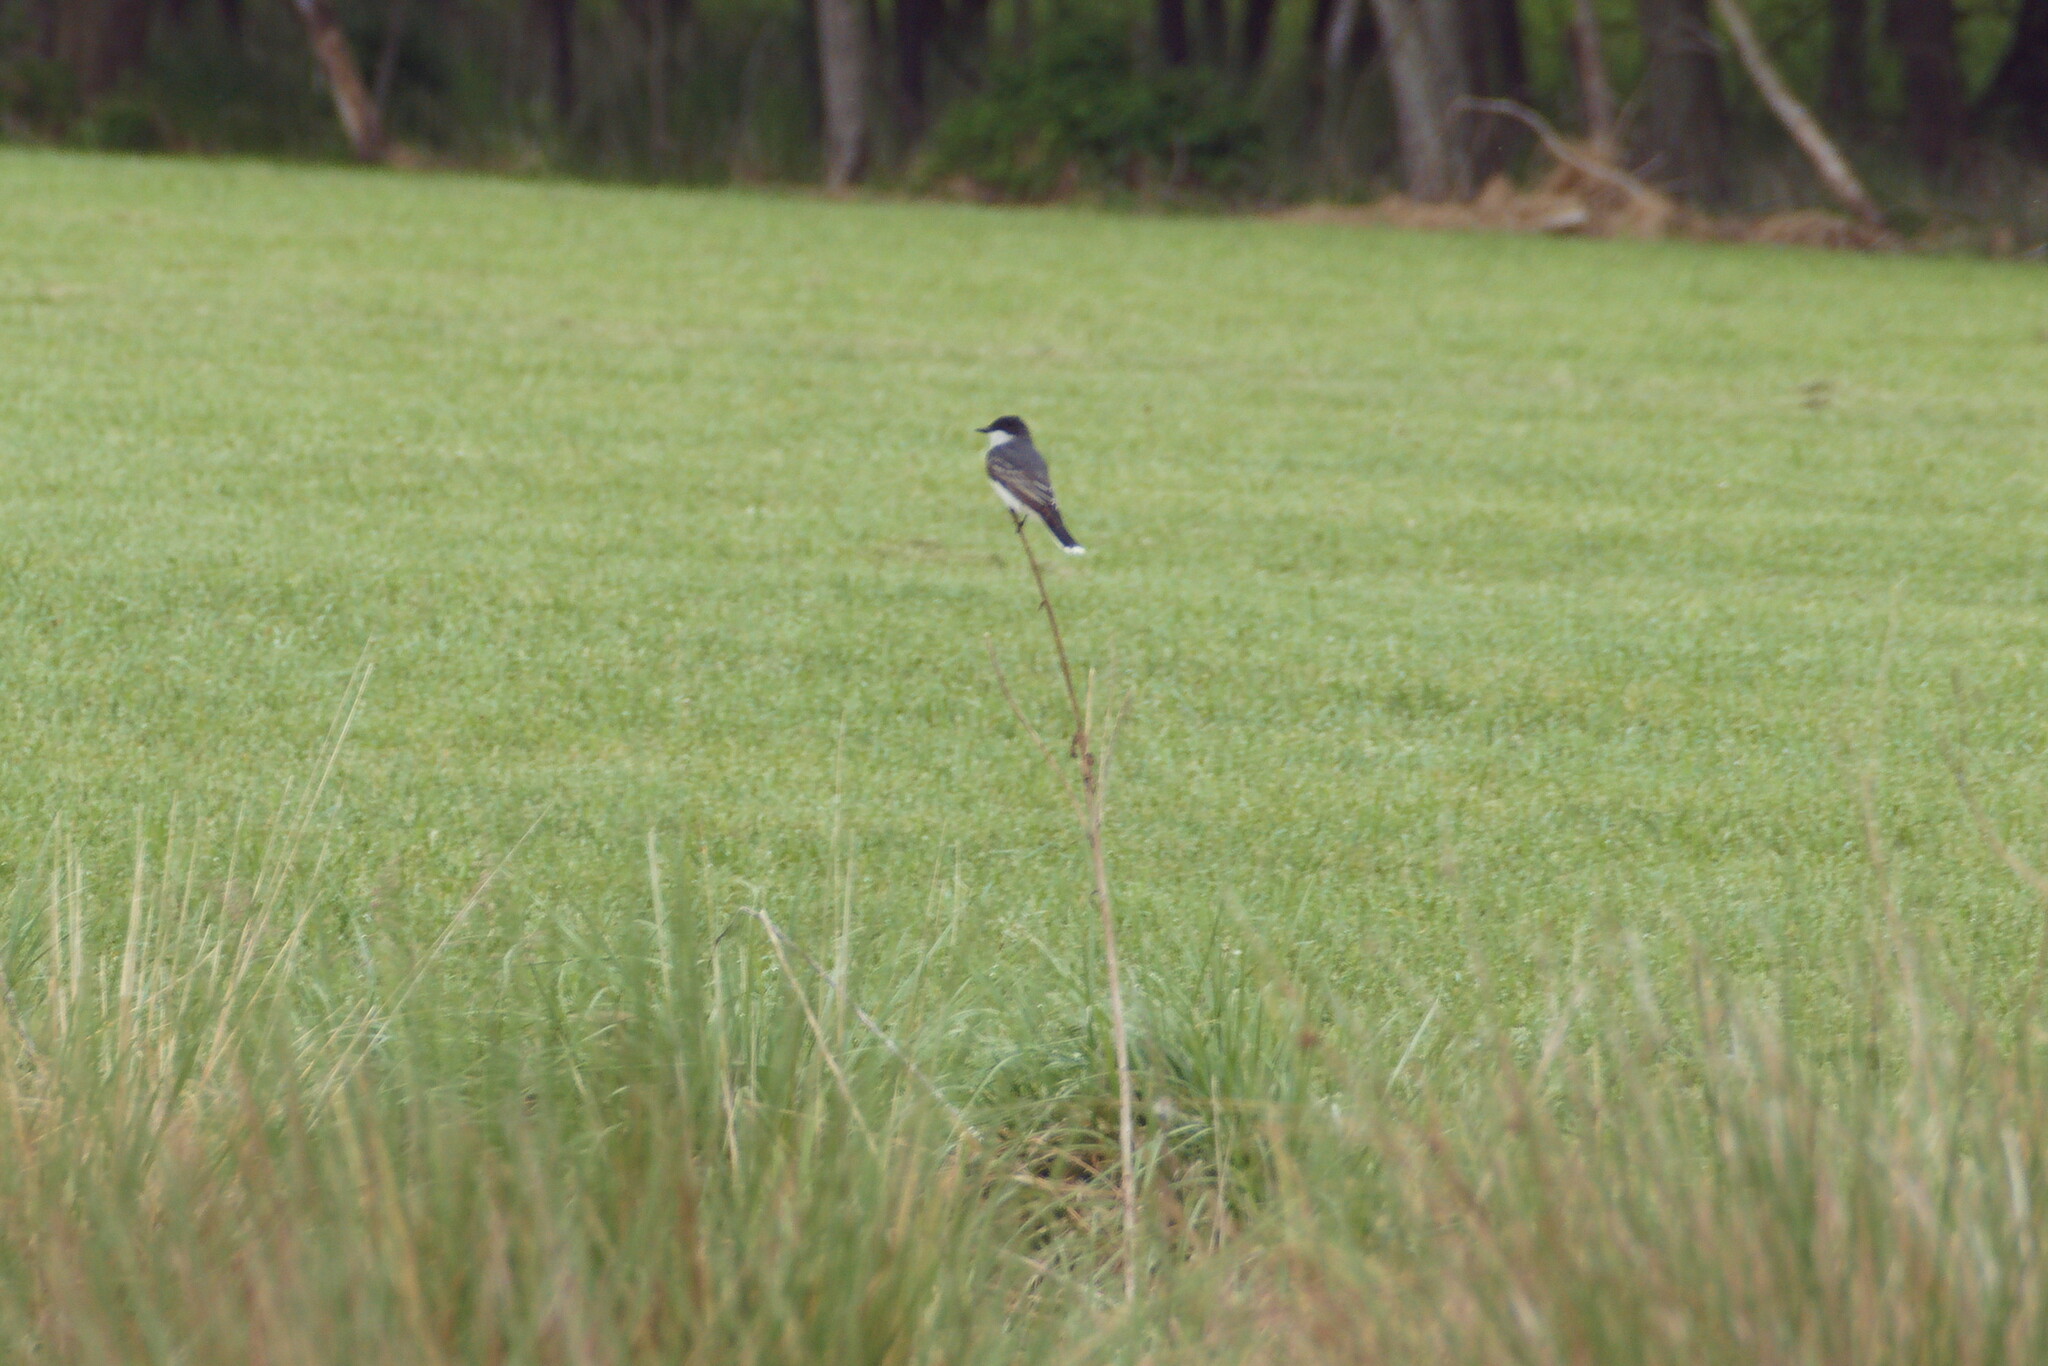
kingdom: Animalia
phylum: Chordata
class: Aves
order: Passeriformes
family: Tyrannidae
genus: Tyrannus
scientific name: Tyrannus tyrannus
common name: Eastern kingbird
